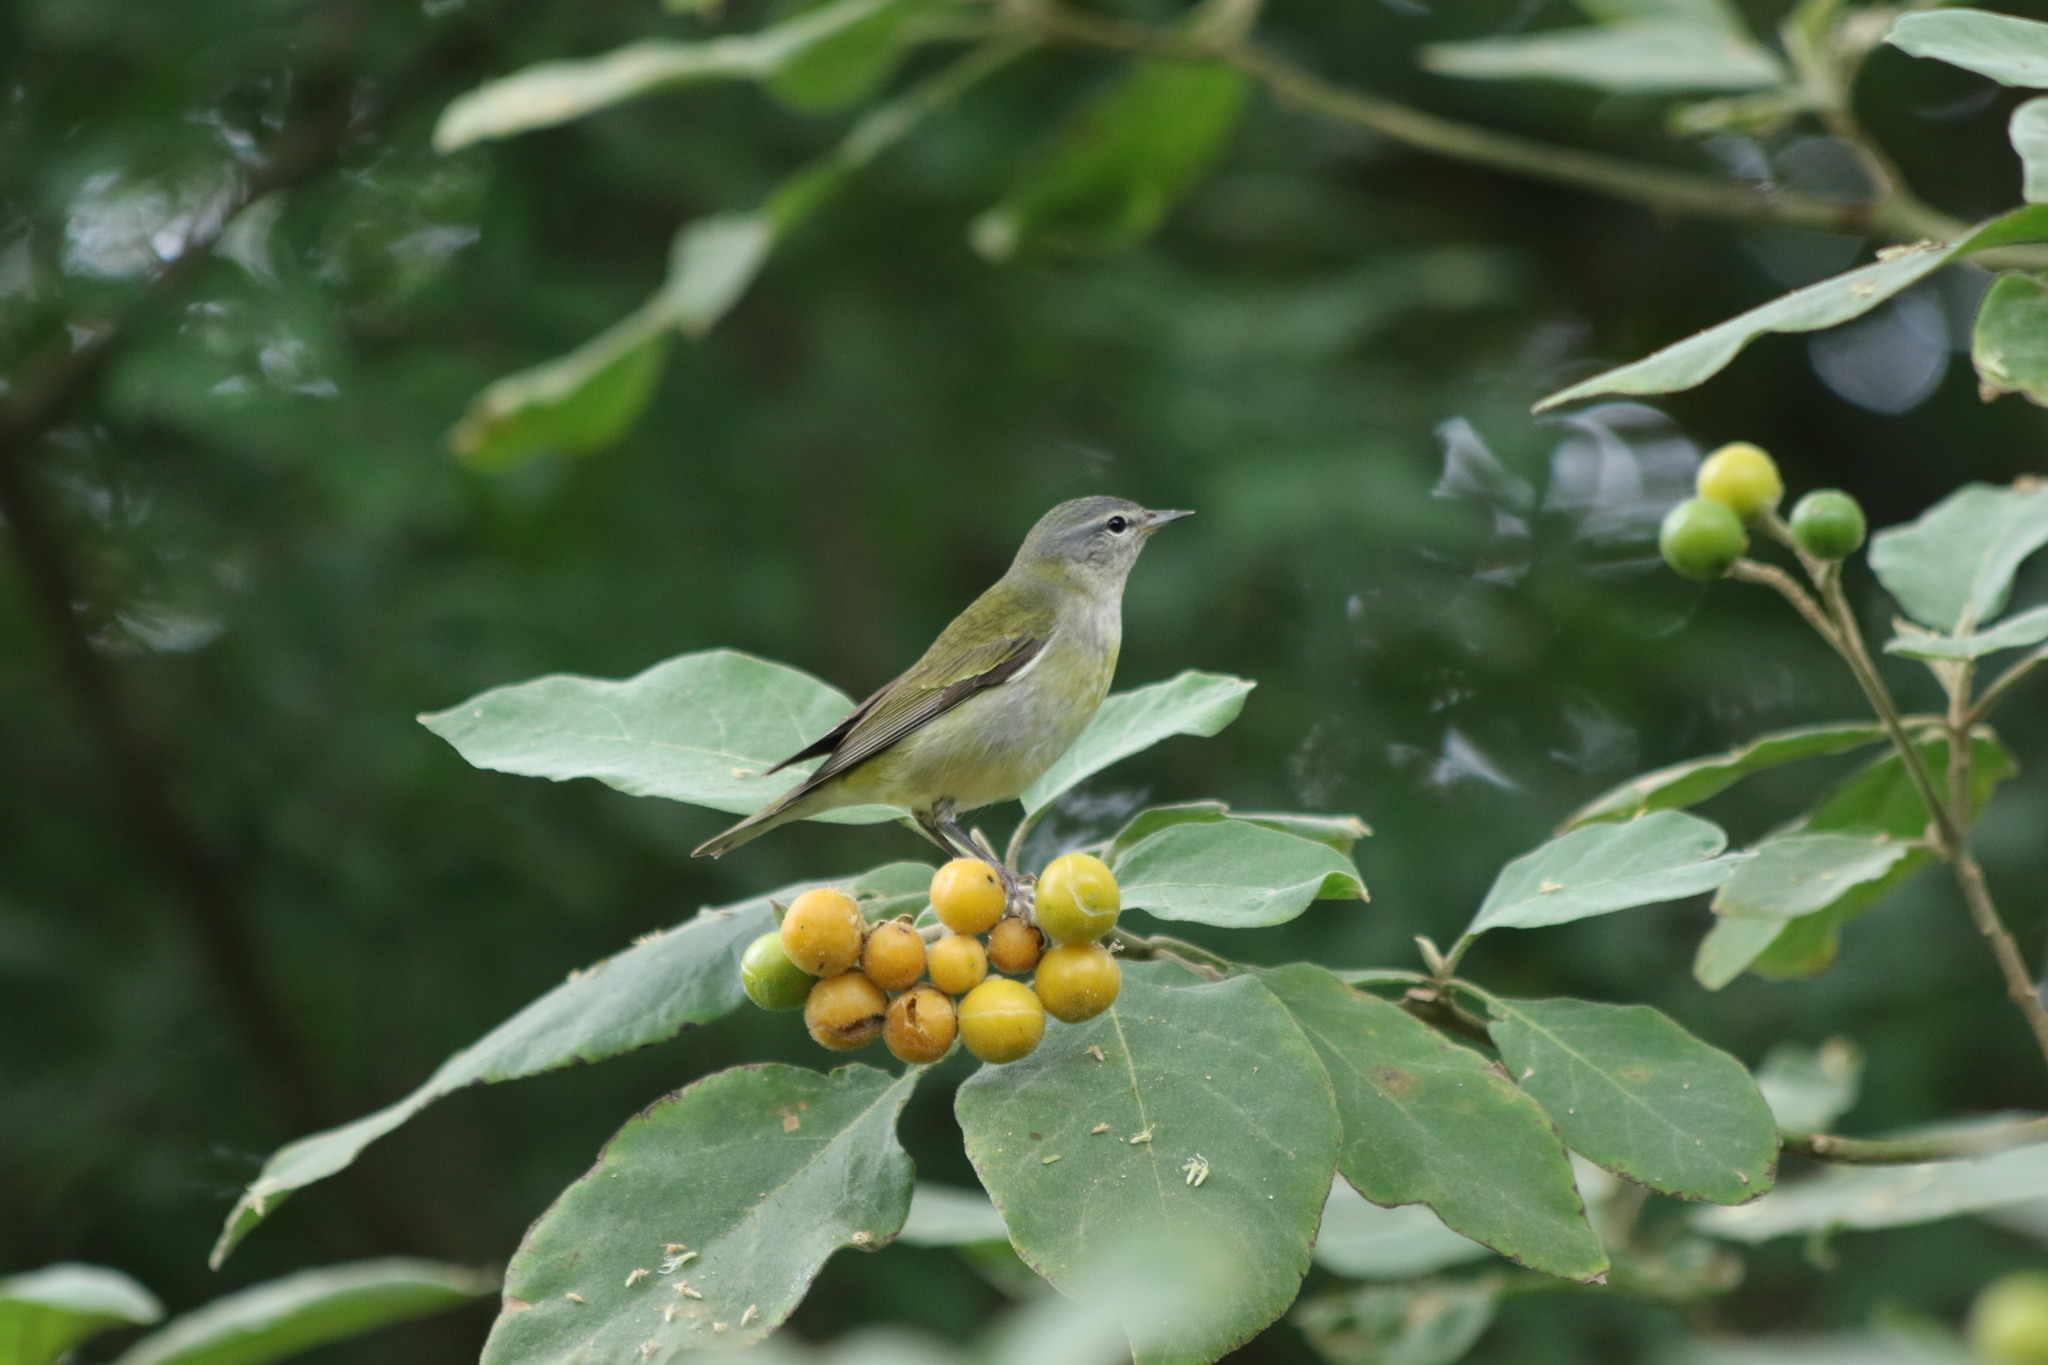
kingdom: Animalia
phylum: Chordata
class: Aves
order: Passeriformes
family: Parulidae
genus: Leiothlypis
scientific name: Leiothlypis peregrina
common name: Tennessee warbler
